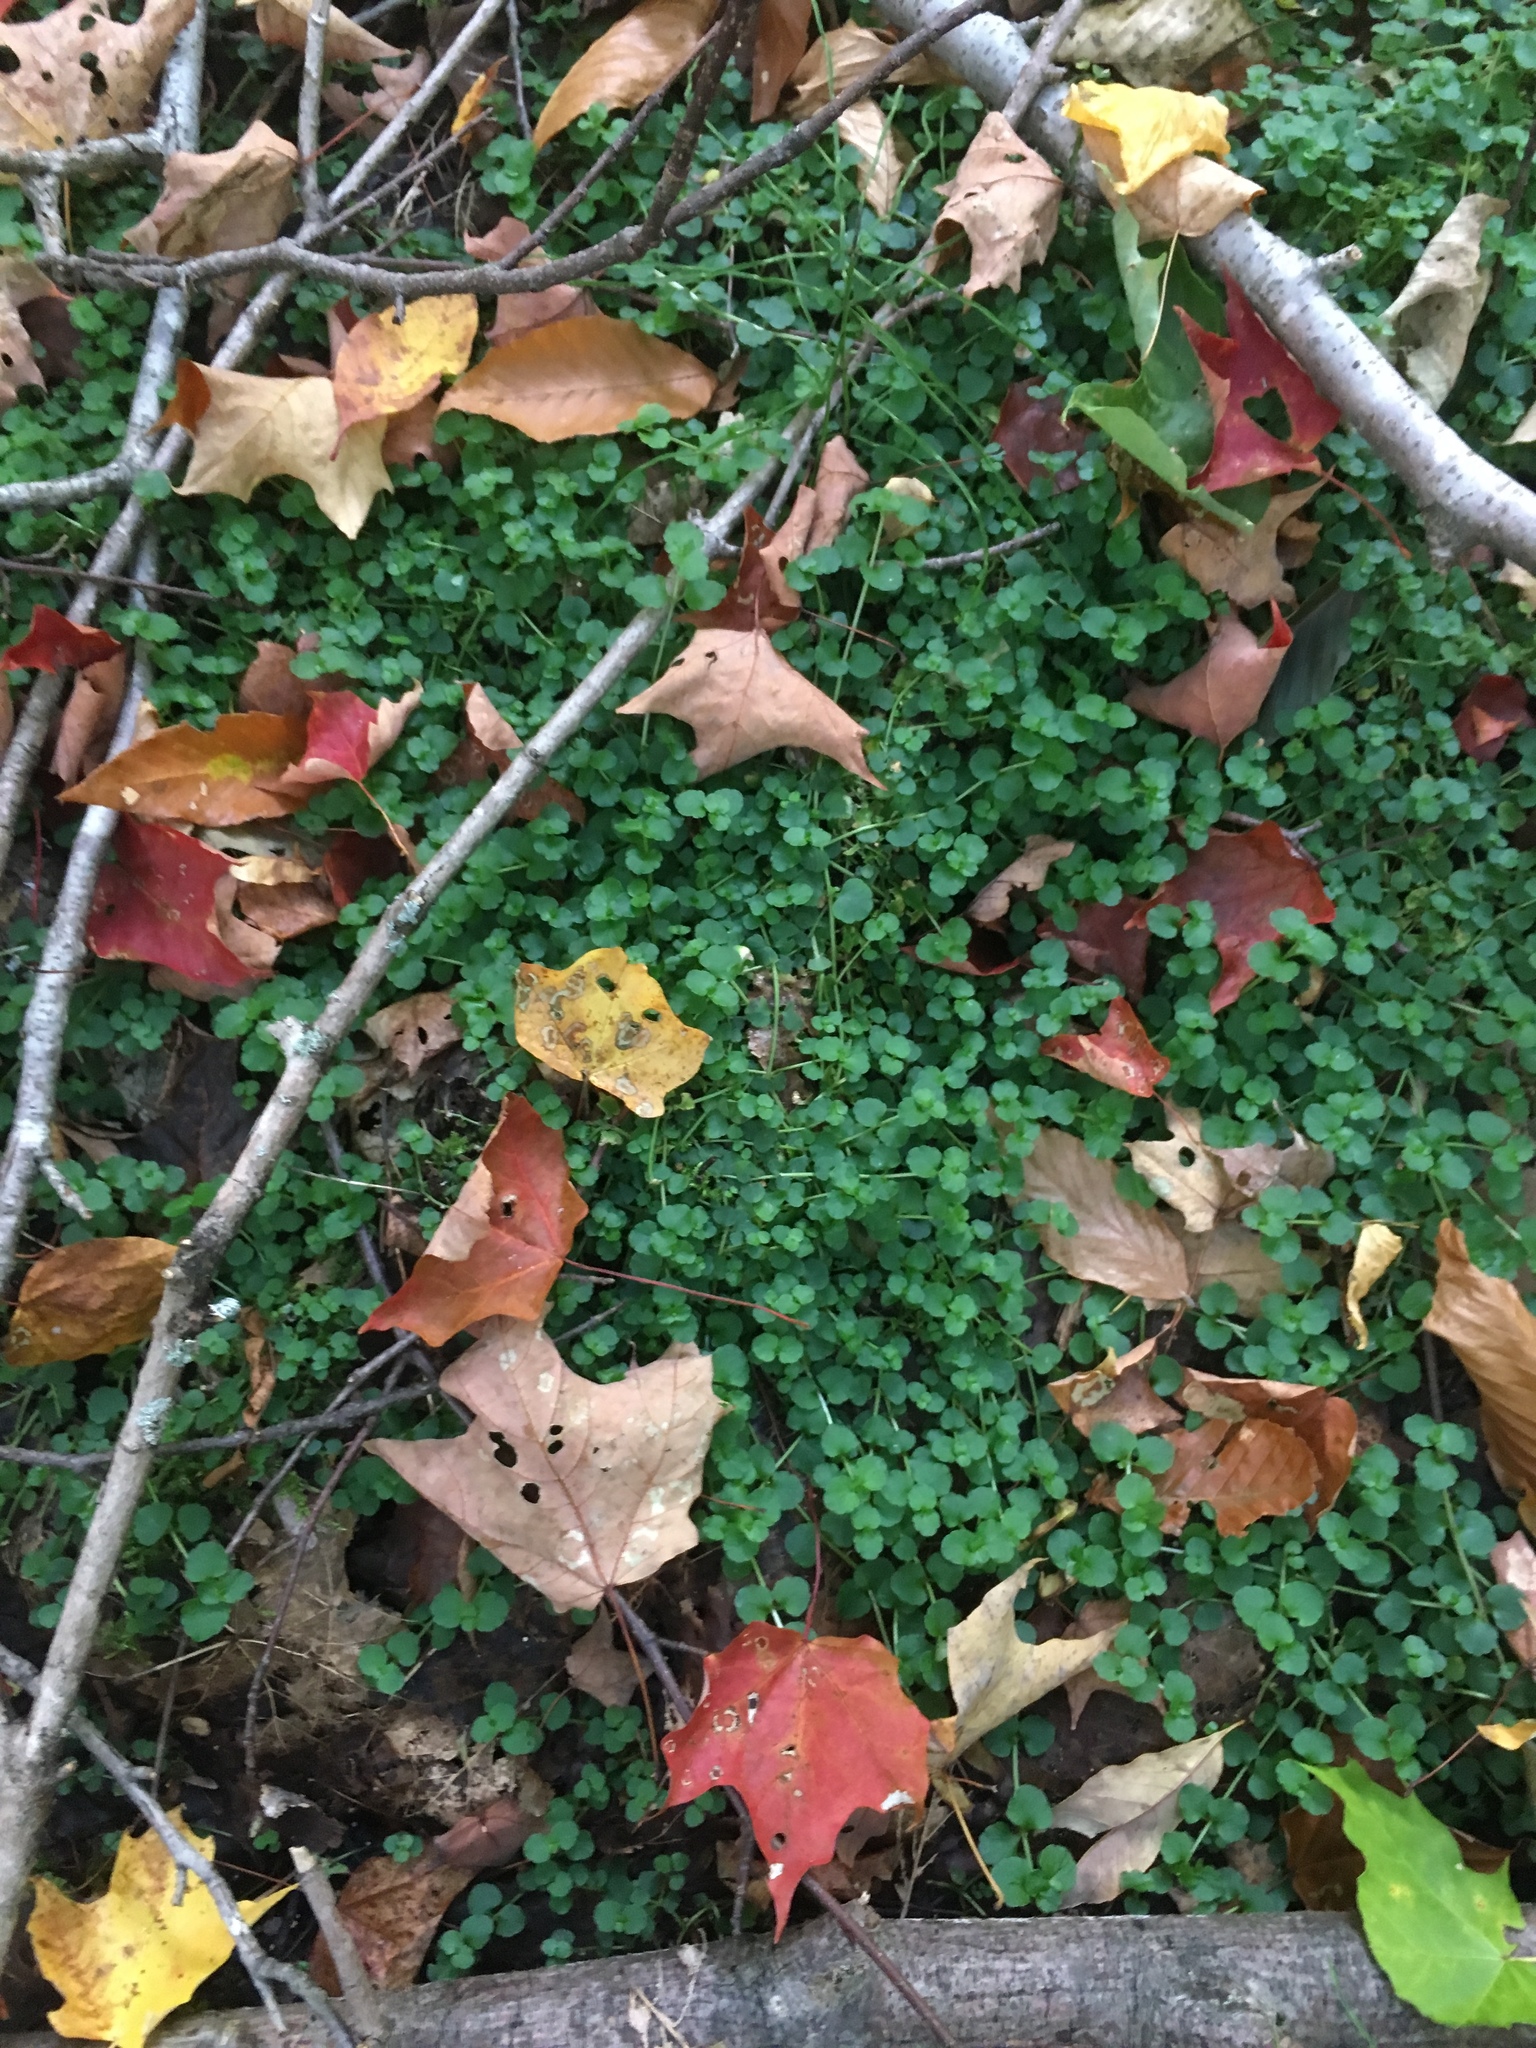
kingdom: Plantae
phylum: Tracheophyta
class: Magnoliopsida
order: Saxifragales
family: Saxifragaceae
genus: Chrysosplenium
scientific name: Chrysosplenium americanum
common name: American golden-saxifrage
